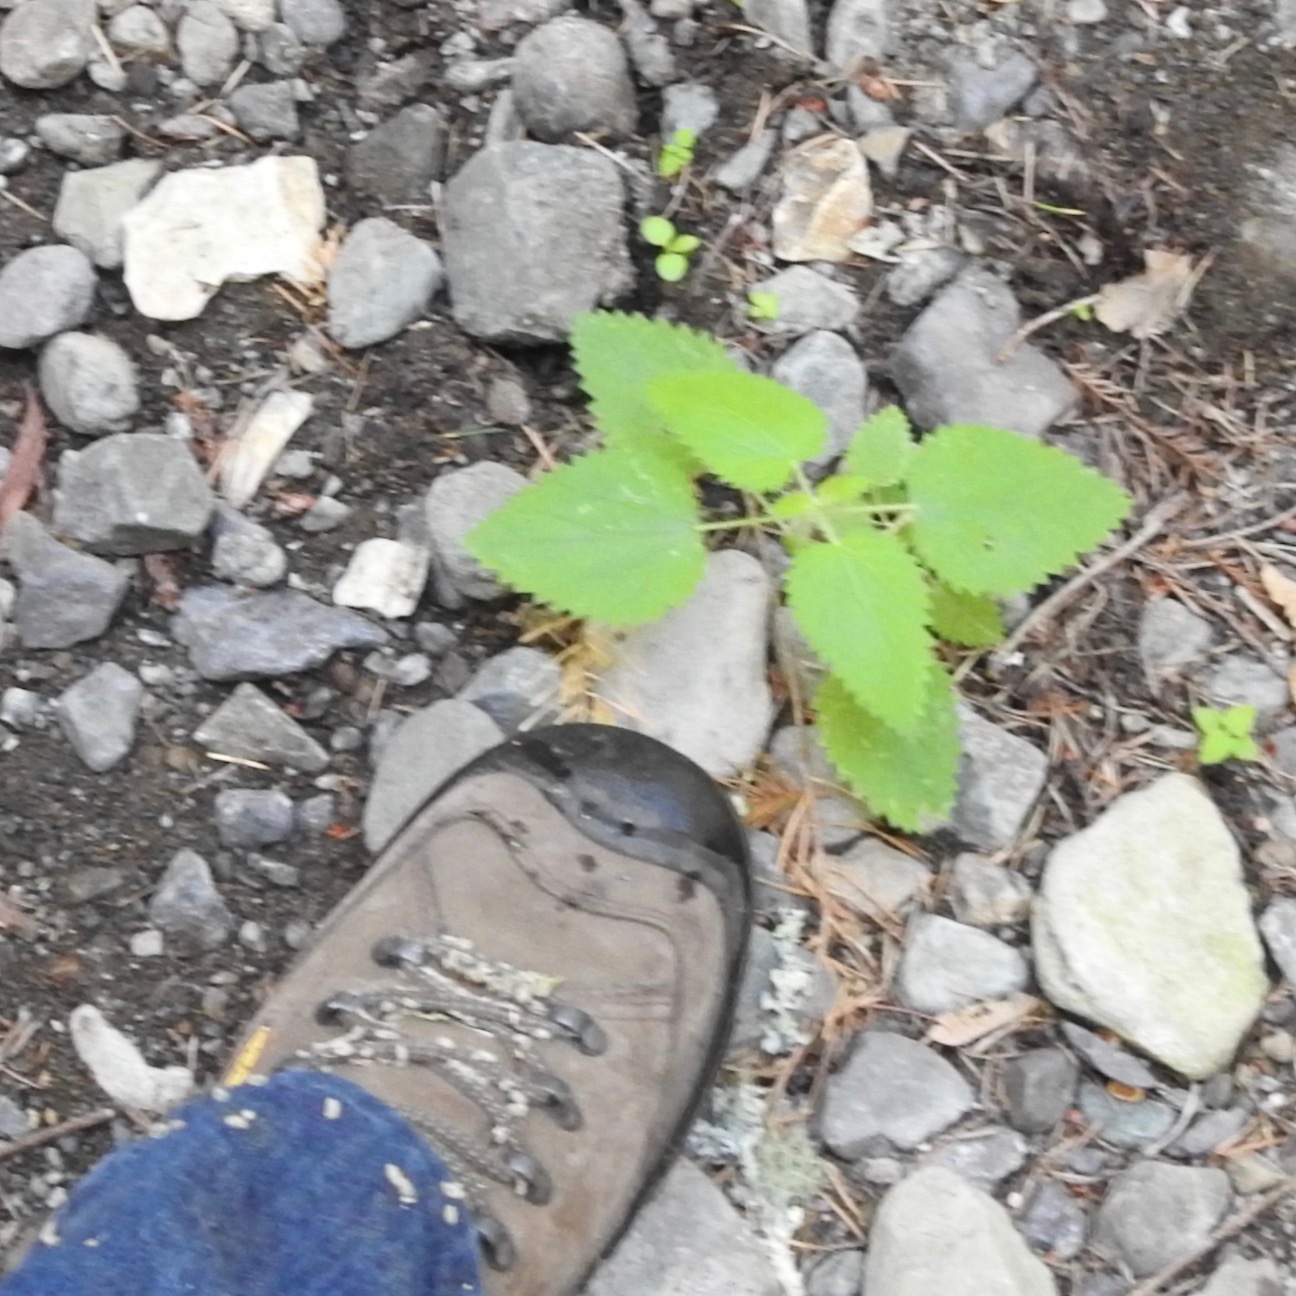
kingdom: Plantae
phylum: Tracheophyta
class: Magnoliopsida
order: Rosales
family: Urticaceae
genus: Urtica
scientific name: Urtica dioica
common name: Common nettle
